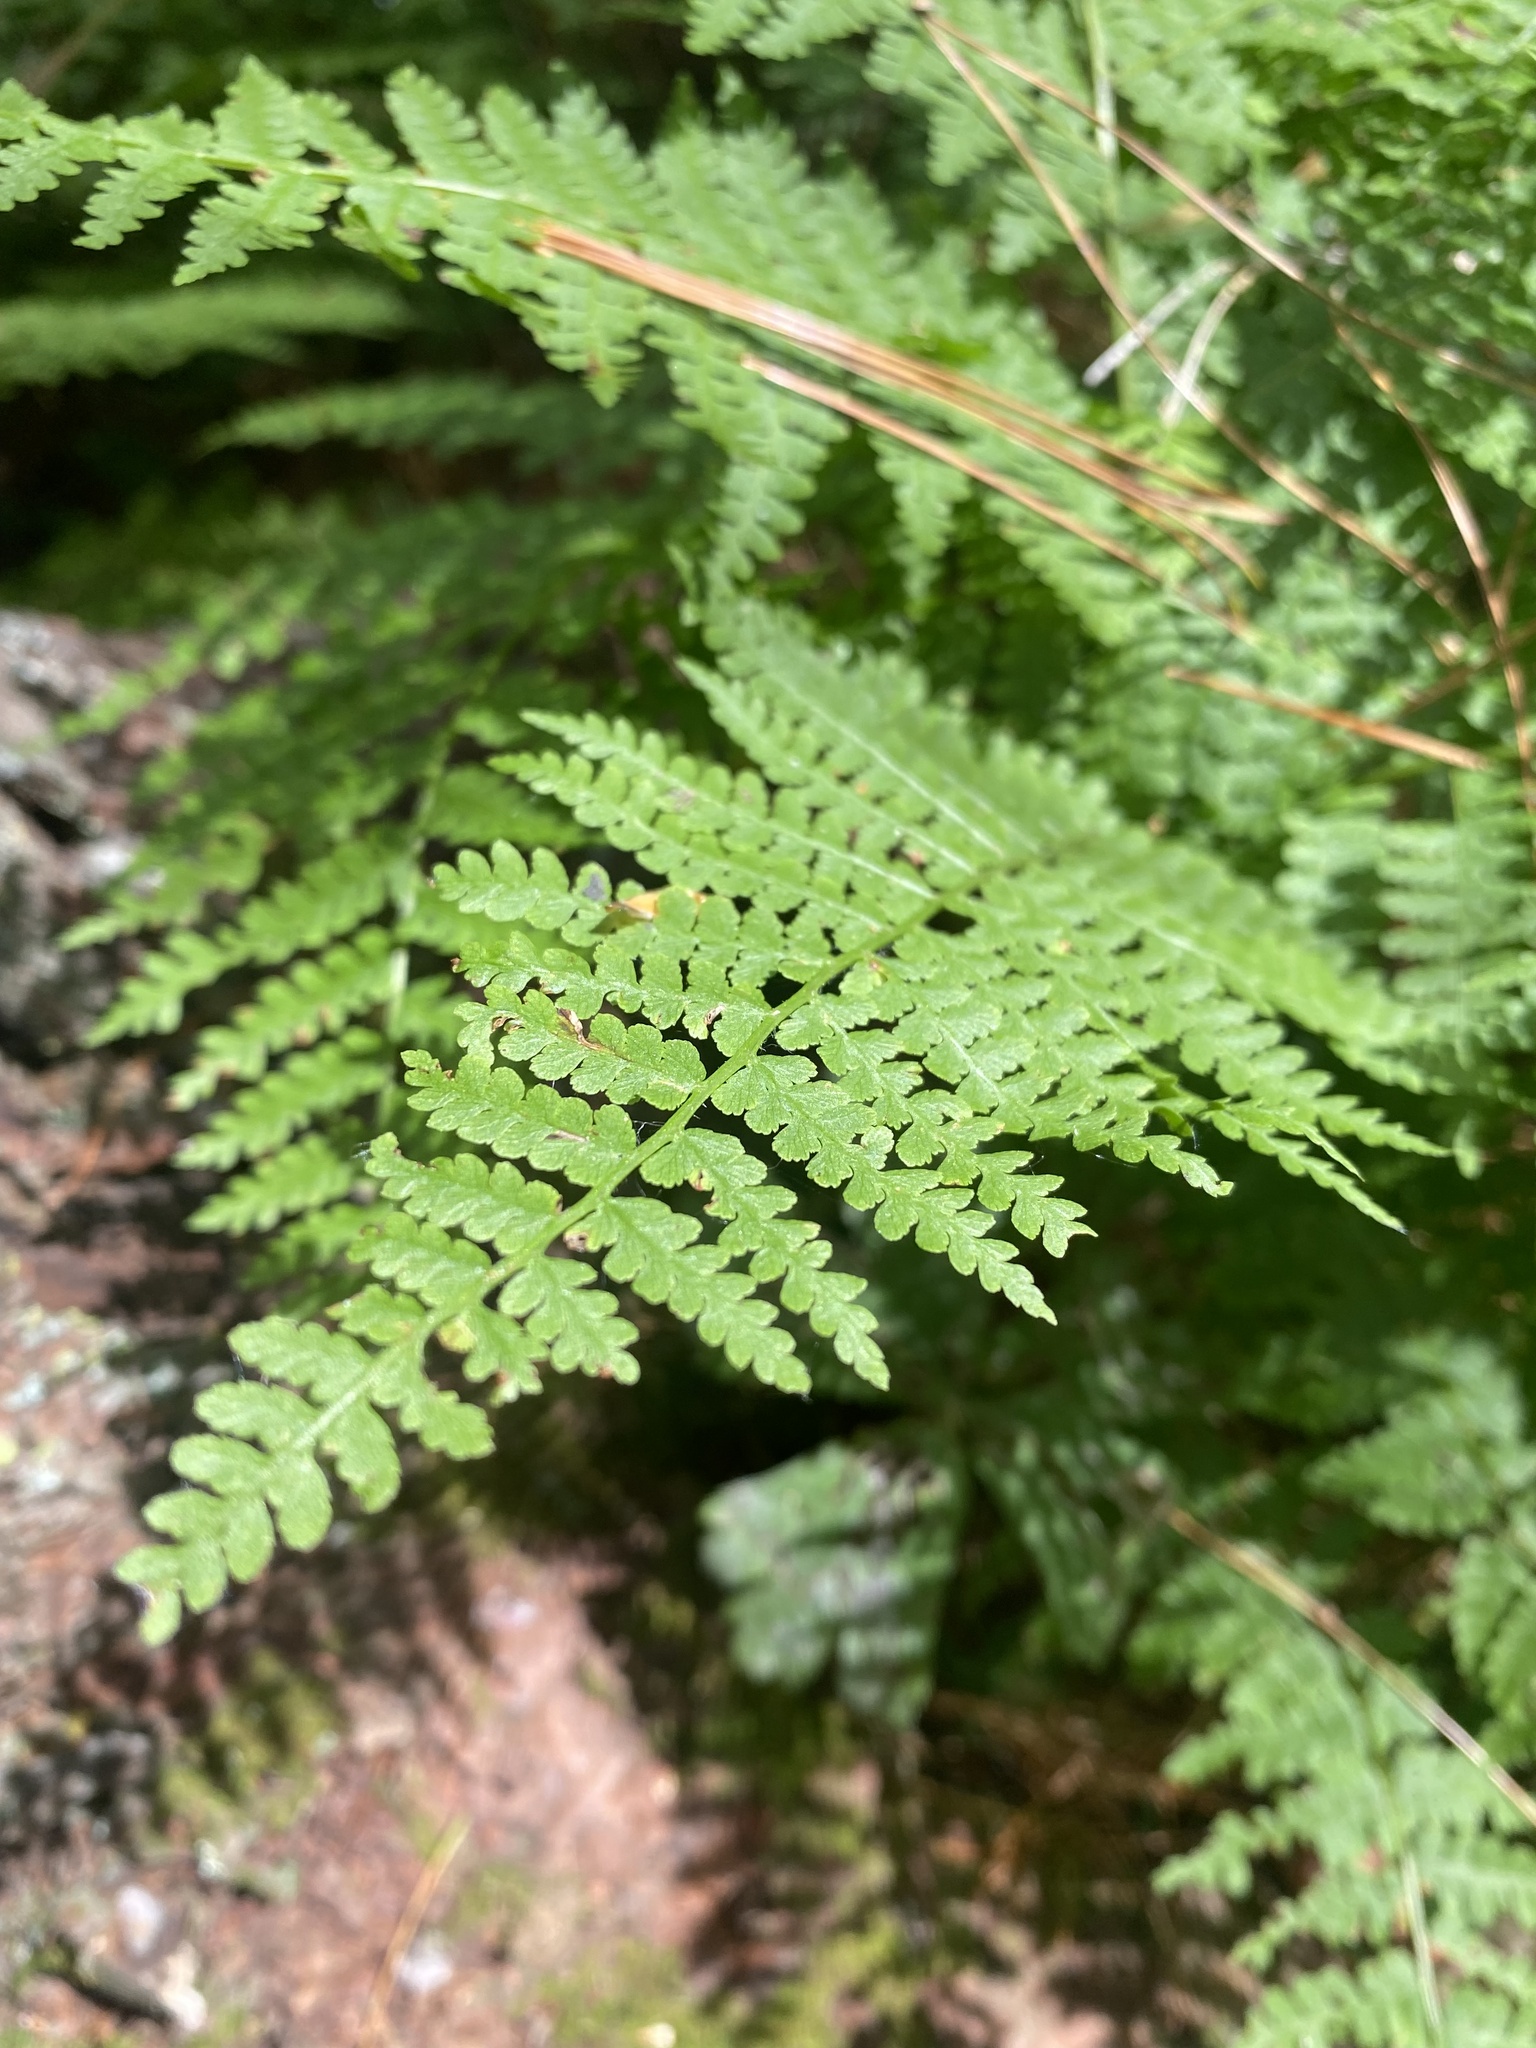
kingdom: Plantae
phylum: Tracheophyta
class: Polypodiopsida
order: Polypodiales
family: Athyriaceae
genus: Diplazium
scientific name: Diplazium sibiricum
